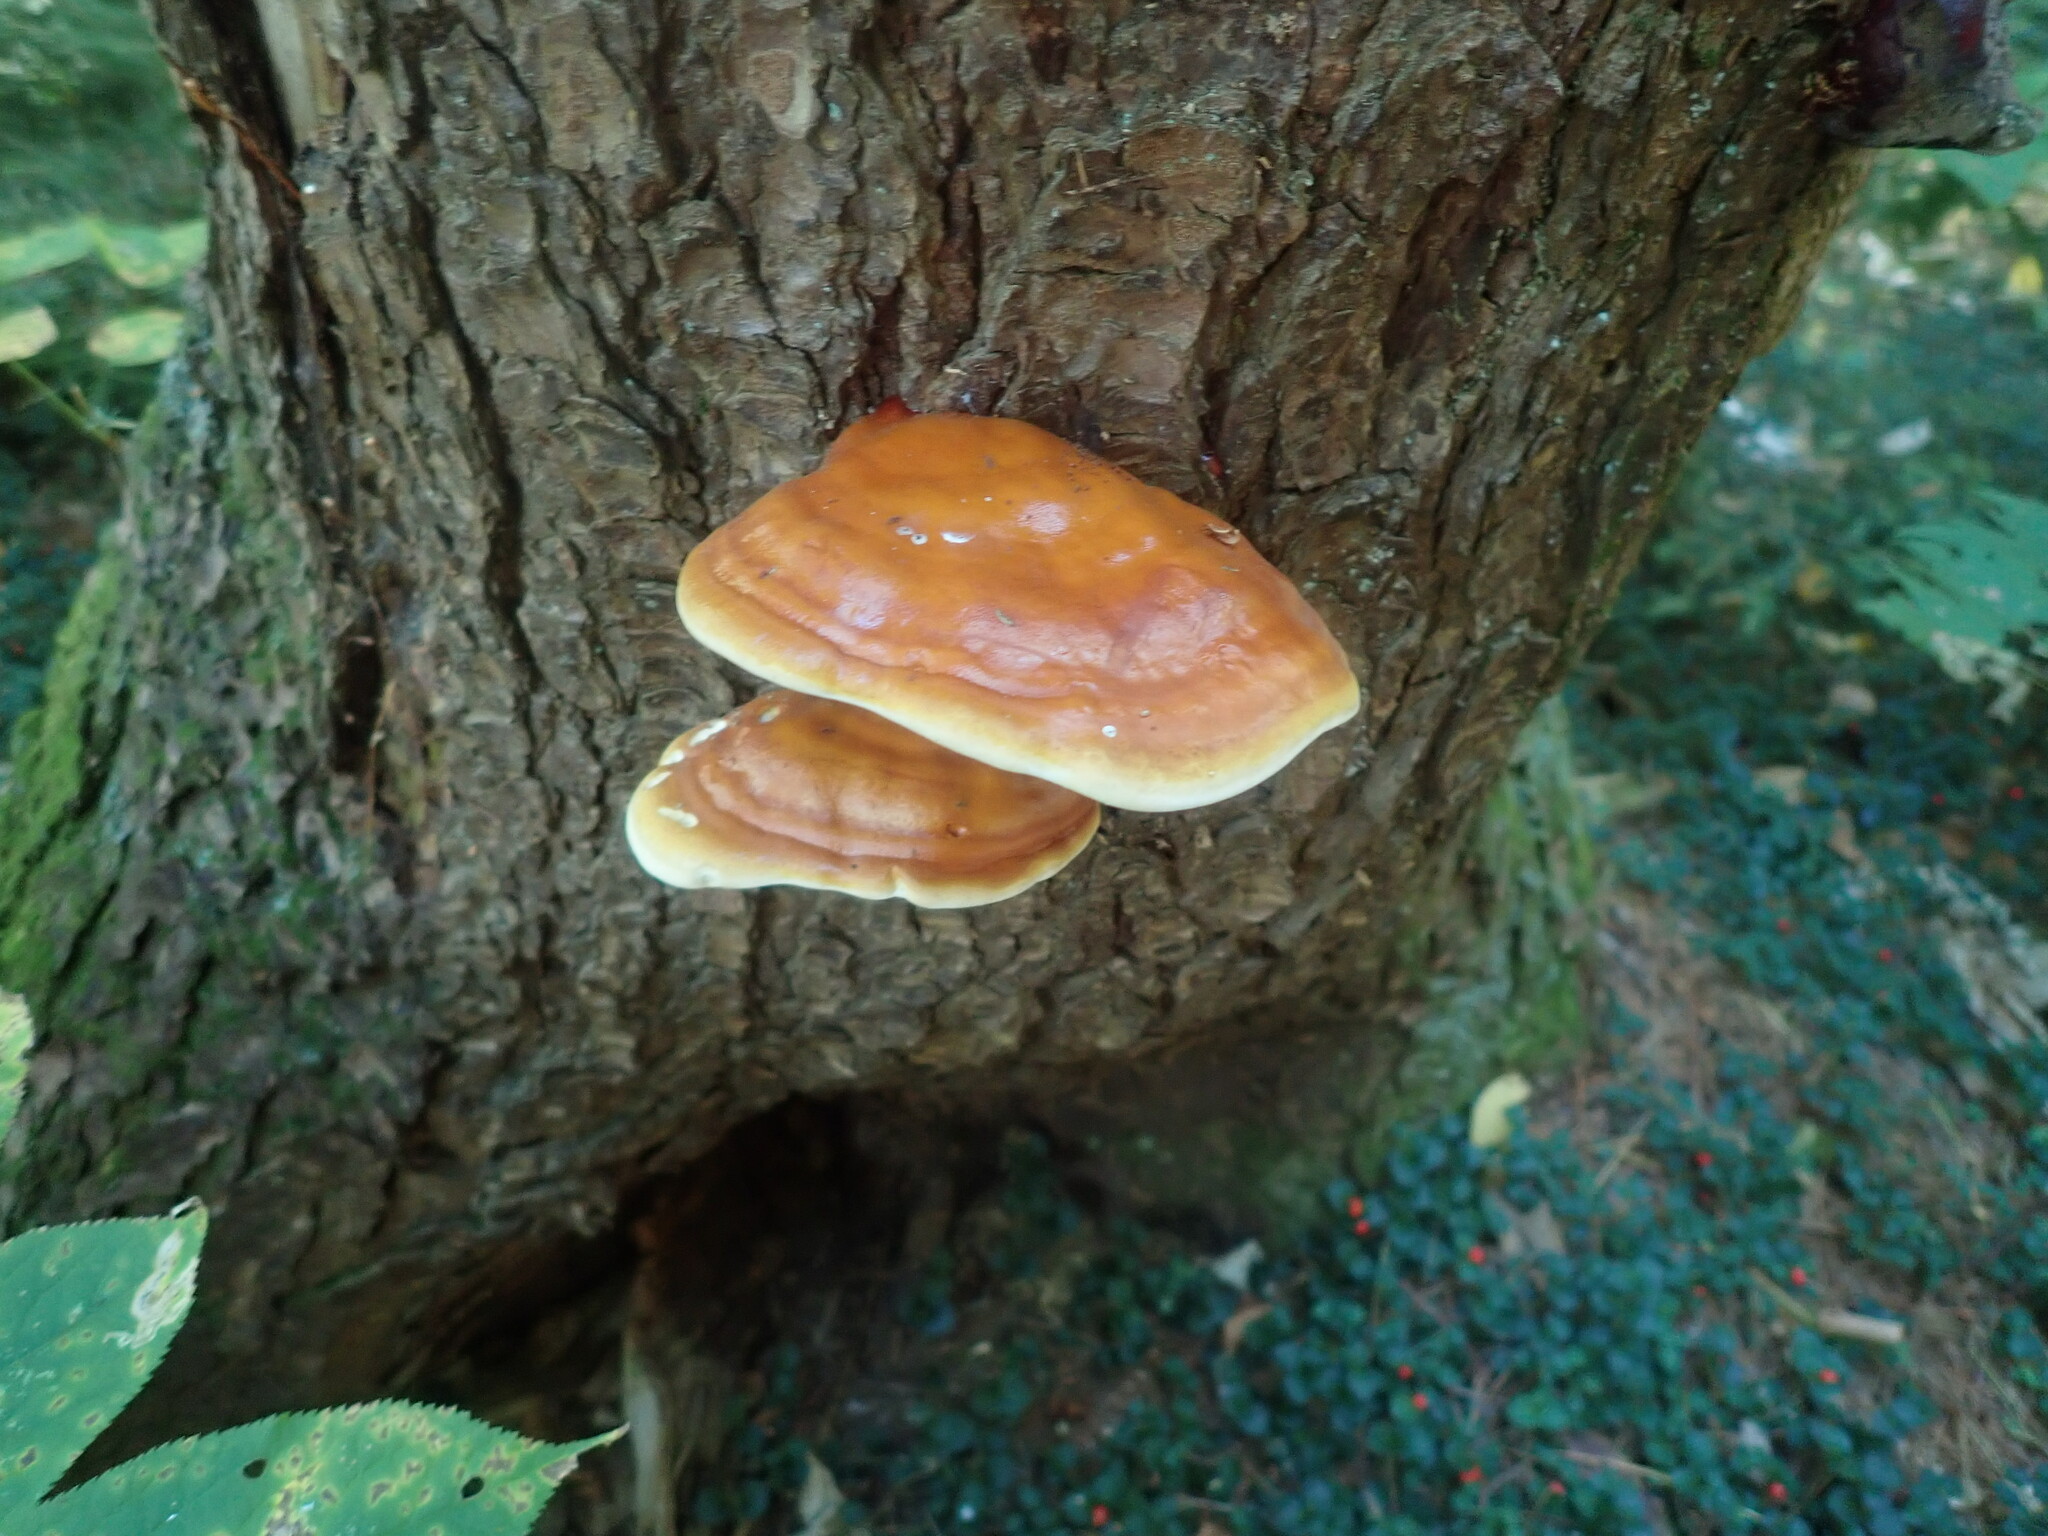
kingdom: Fungi
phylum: Basidiomycota
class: Agaricomycetes
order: Polyporales
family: Polyporaceae
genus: Ganoderma
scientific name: Ganoderma tsugae
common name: Hemlock varnish shelf
